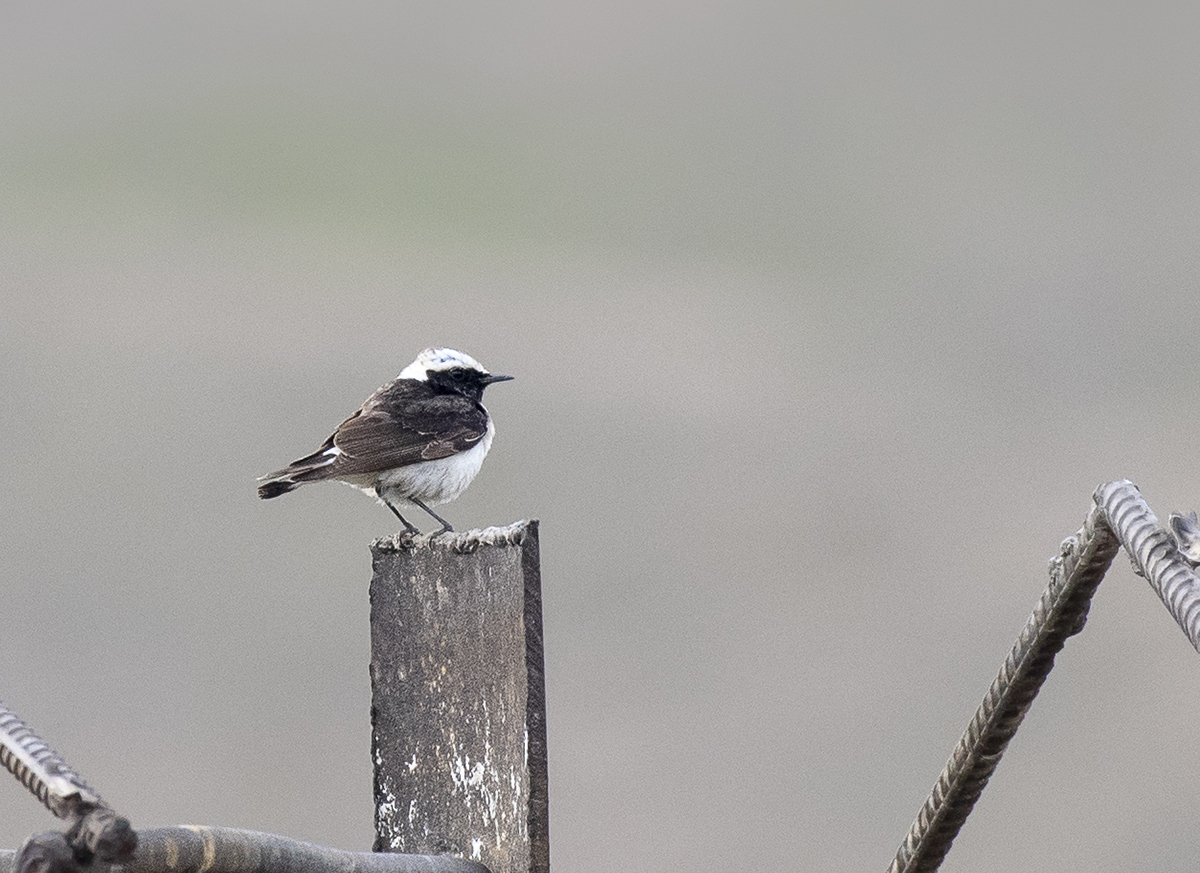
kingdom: Animalia
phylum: Chordata
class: Aves
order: Passeriformes
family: Muscicapidae
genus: Oenanthe
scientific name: Oenanthe pleschanka
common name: Pied wheatear
